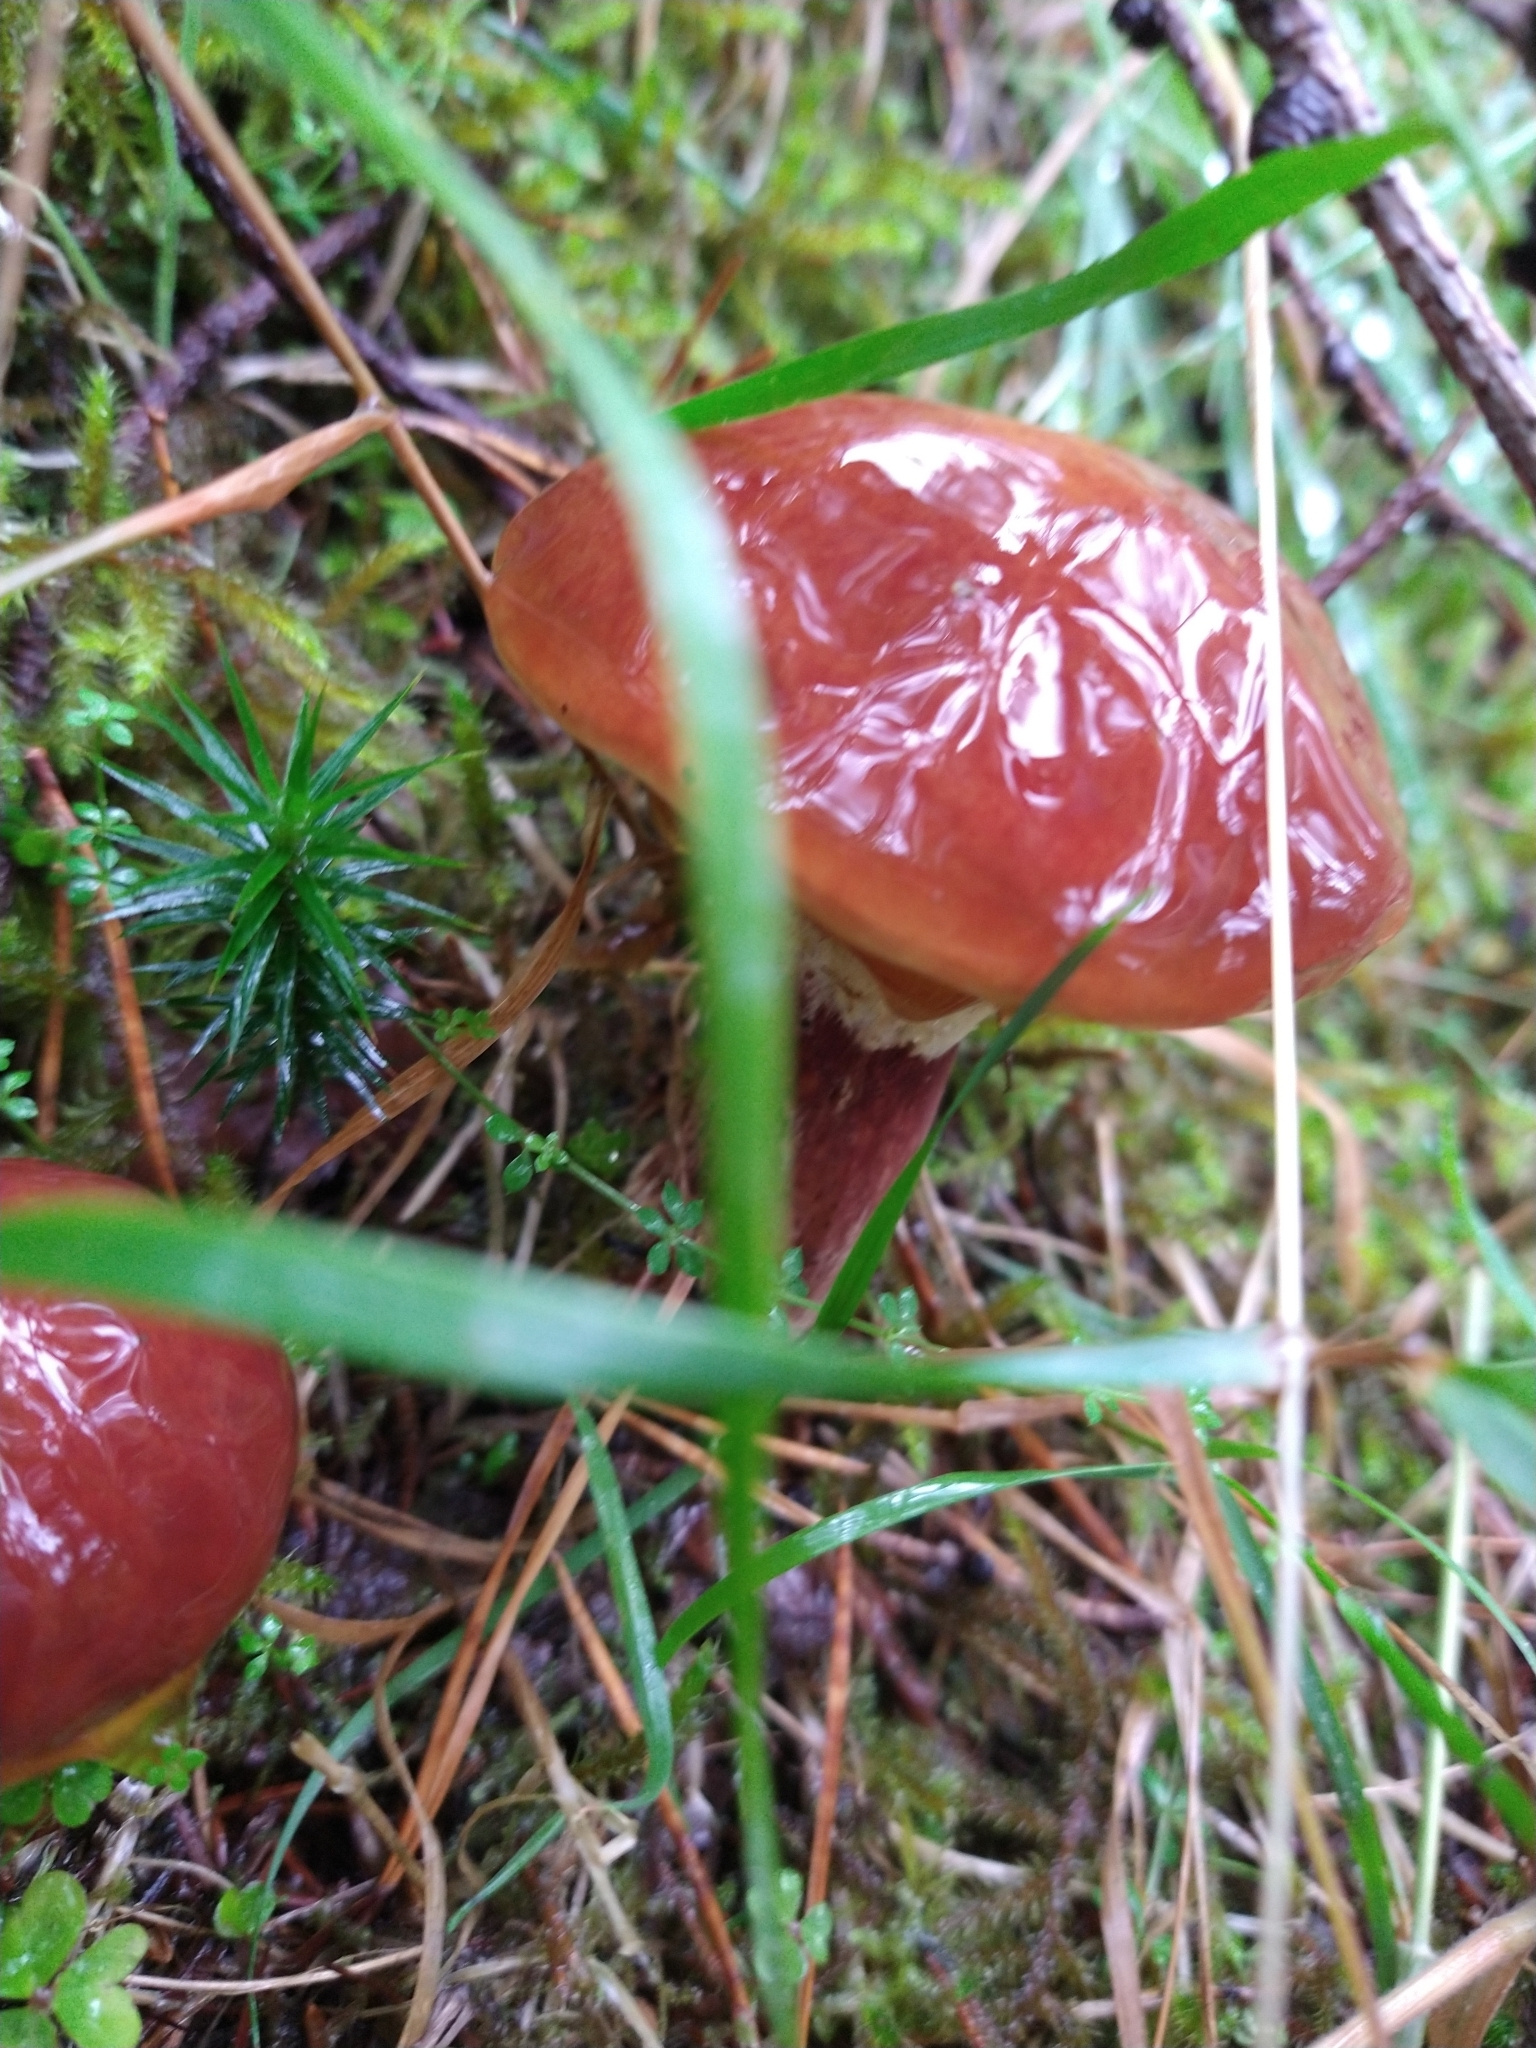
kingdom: Fungi
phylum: Basidiomycota
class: Agaricomycetes
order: Boletales
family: Suillaceae
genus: Suillus
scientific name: Suillus grevillei
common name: Larch bolete
